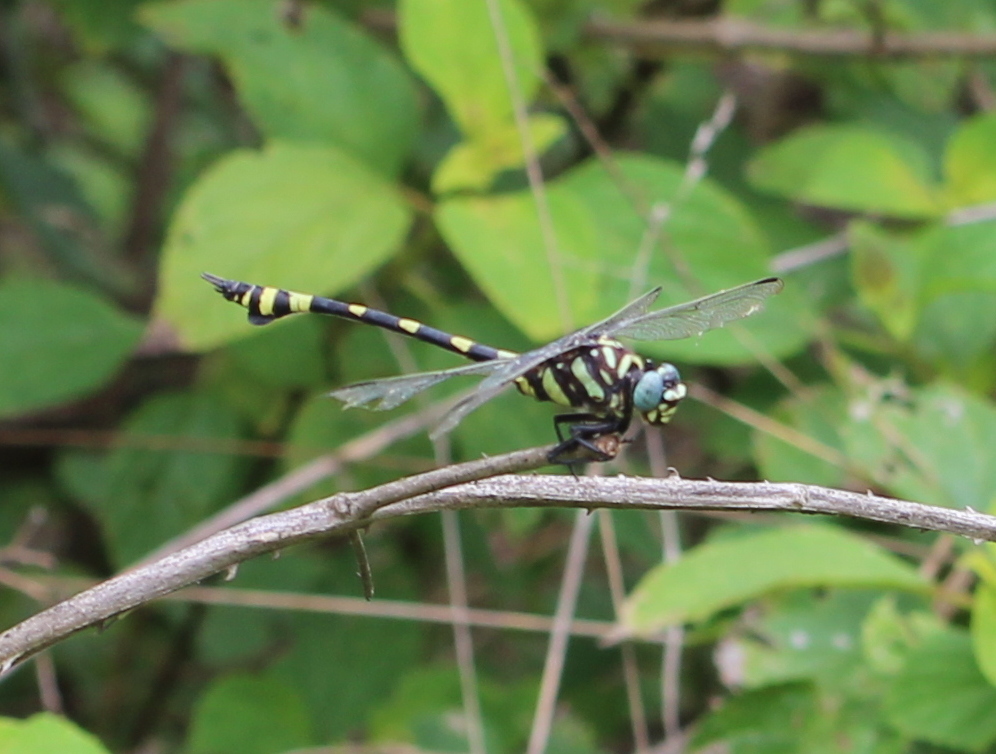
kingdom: Animalia
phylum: Arthropoda
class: Insecta
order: Odonata
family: Gomphidae
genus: Ictinogomphus
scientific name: Ictinogomphus rapax
